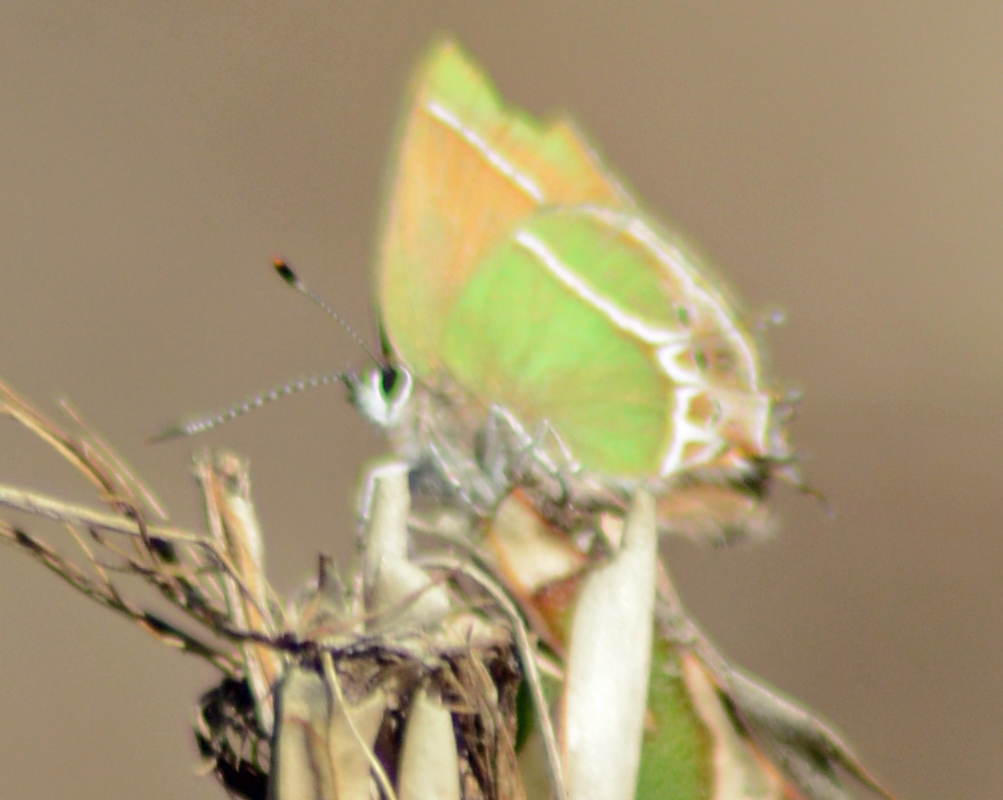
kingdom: Animalia
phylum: Arthropoda
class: Insecta
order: Lepidoptera
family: Lycaenidae
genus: Xamia
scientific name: Xamia xami
